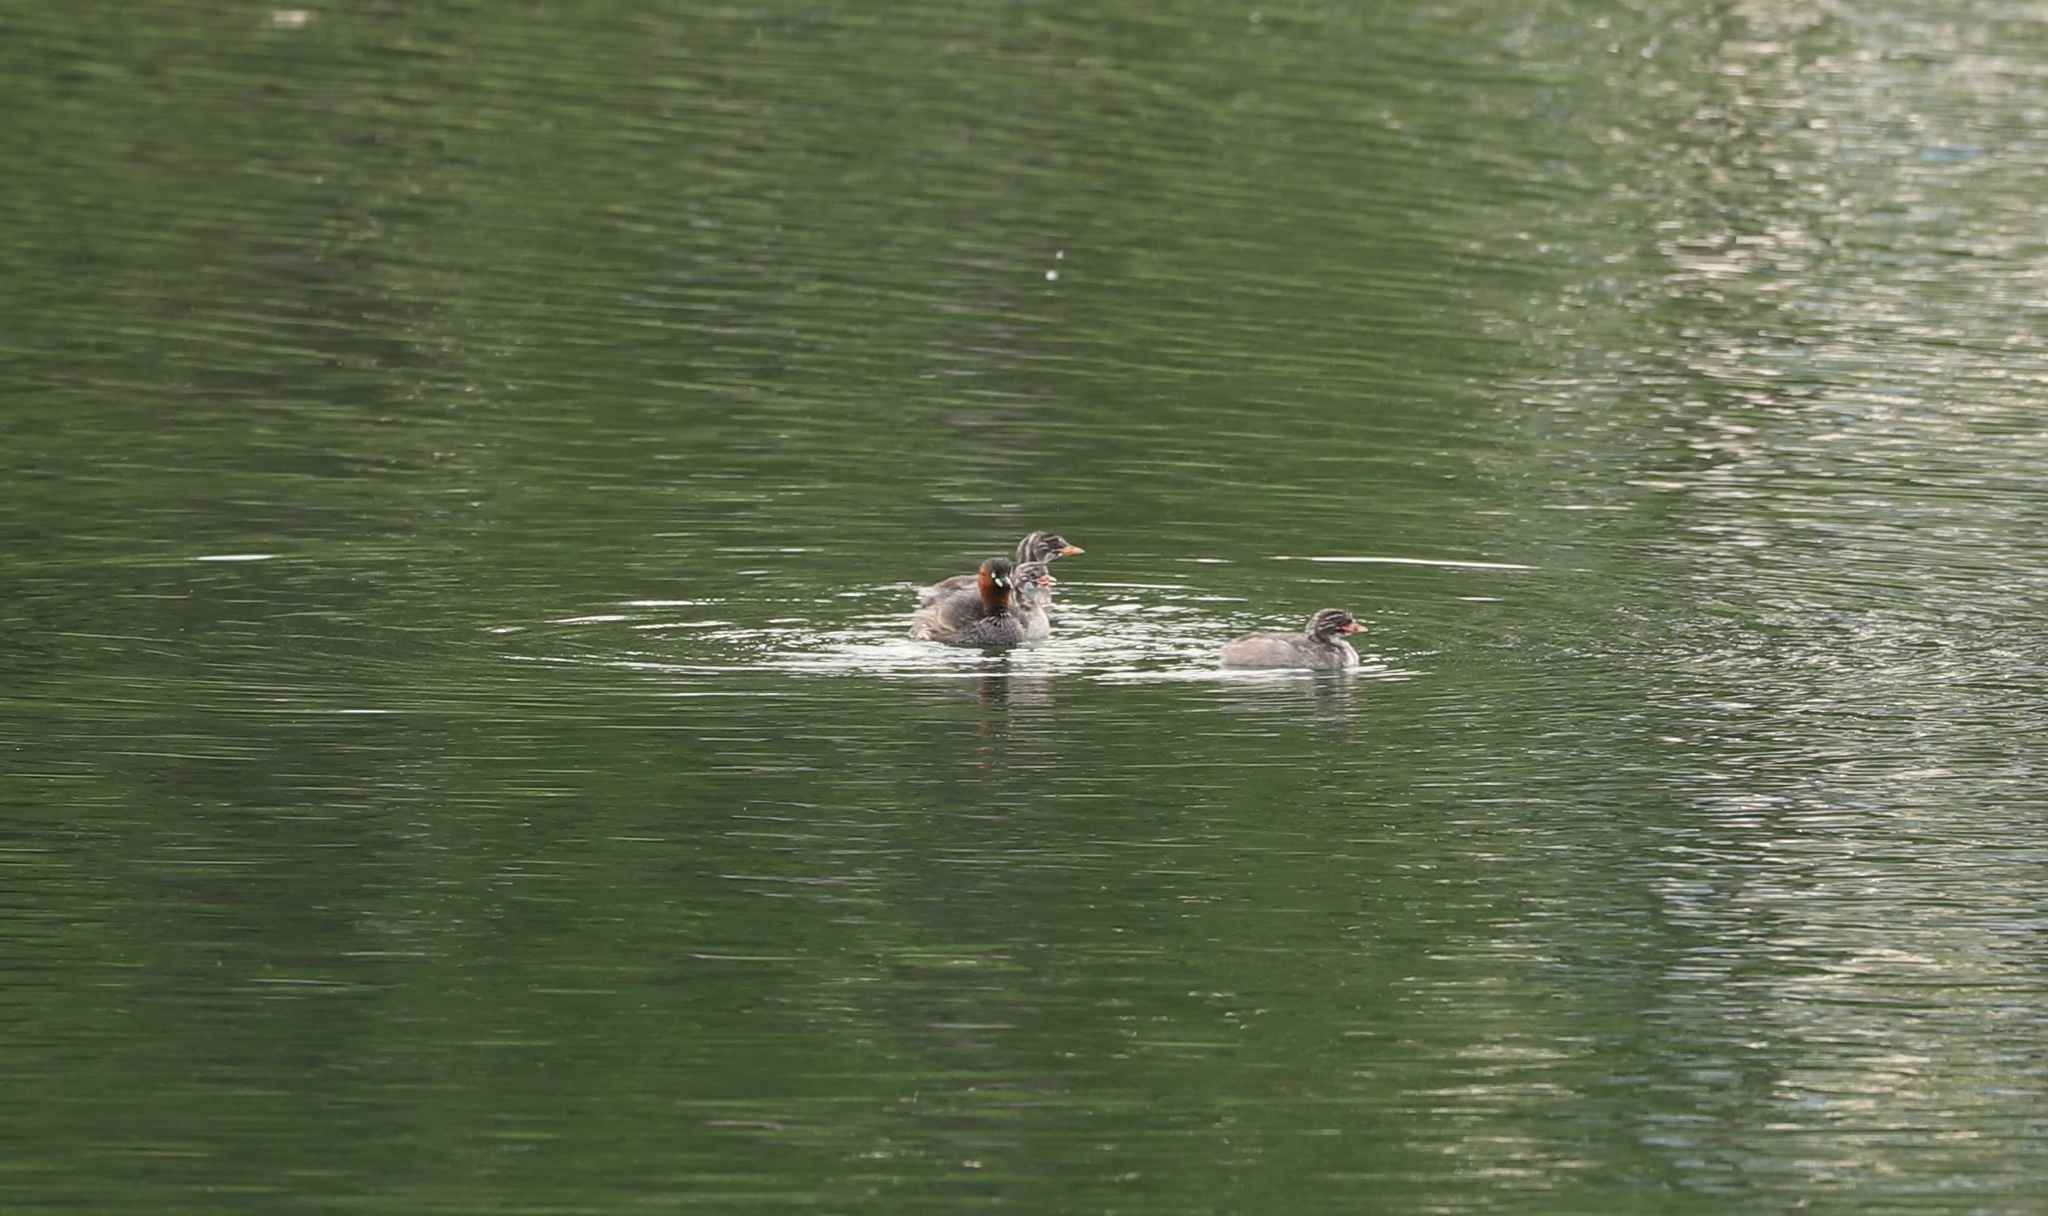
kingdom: Animalia
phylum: Chordata
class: Aves
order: Podicipediformes
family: Podicipedidae
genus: Tachybaptus
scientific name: Tachybaptus ruficollis
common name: Little grebe
